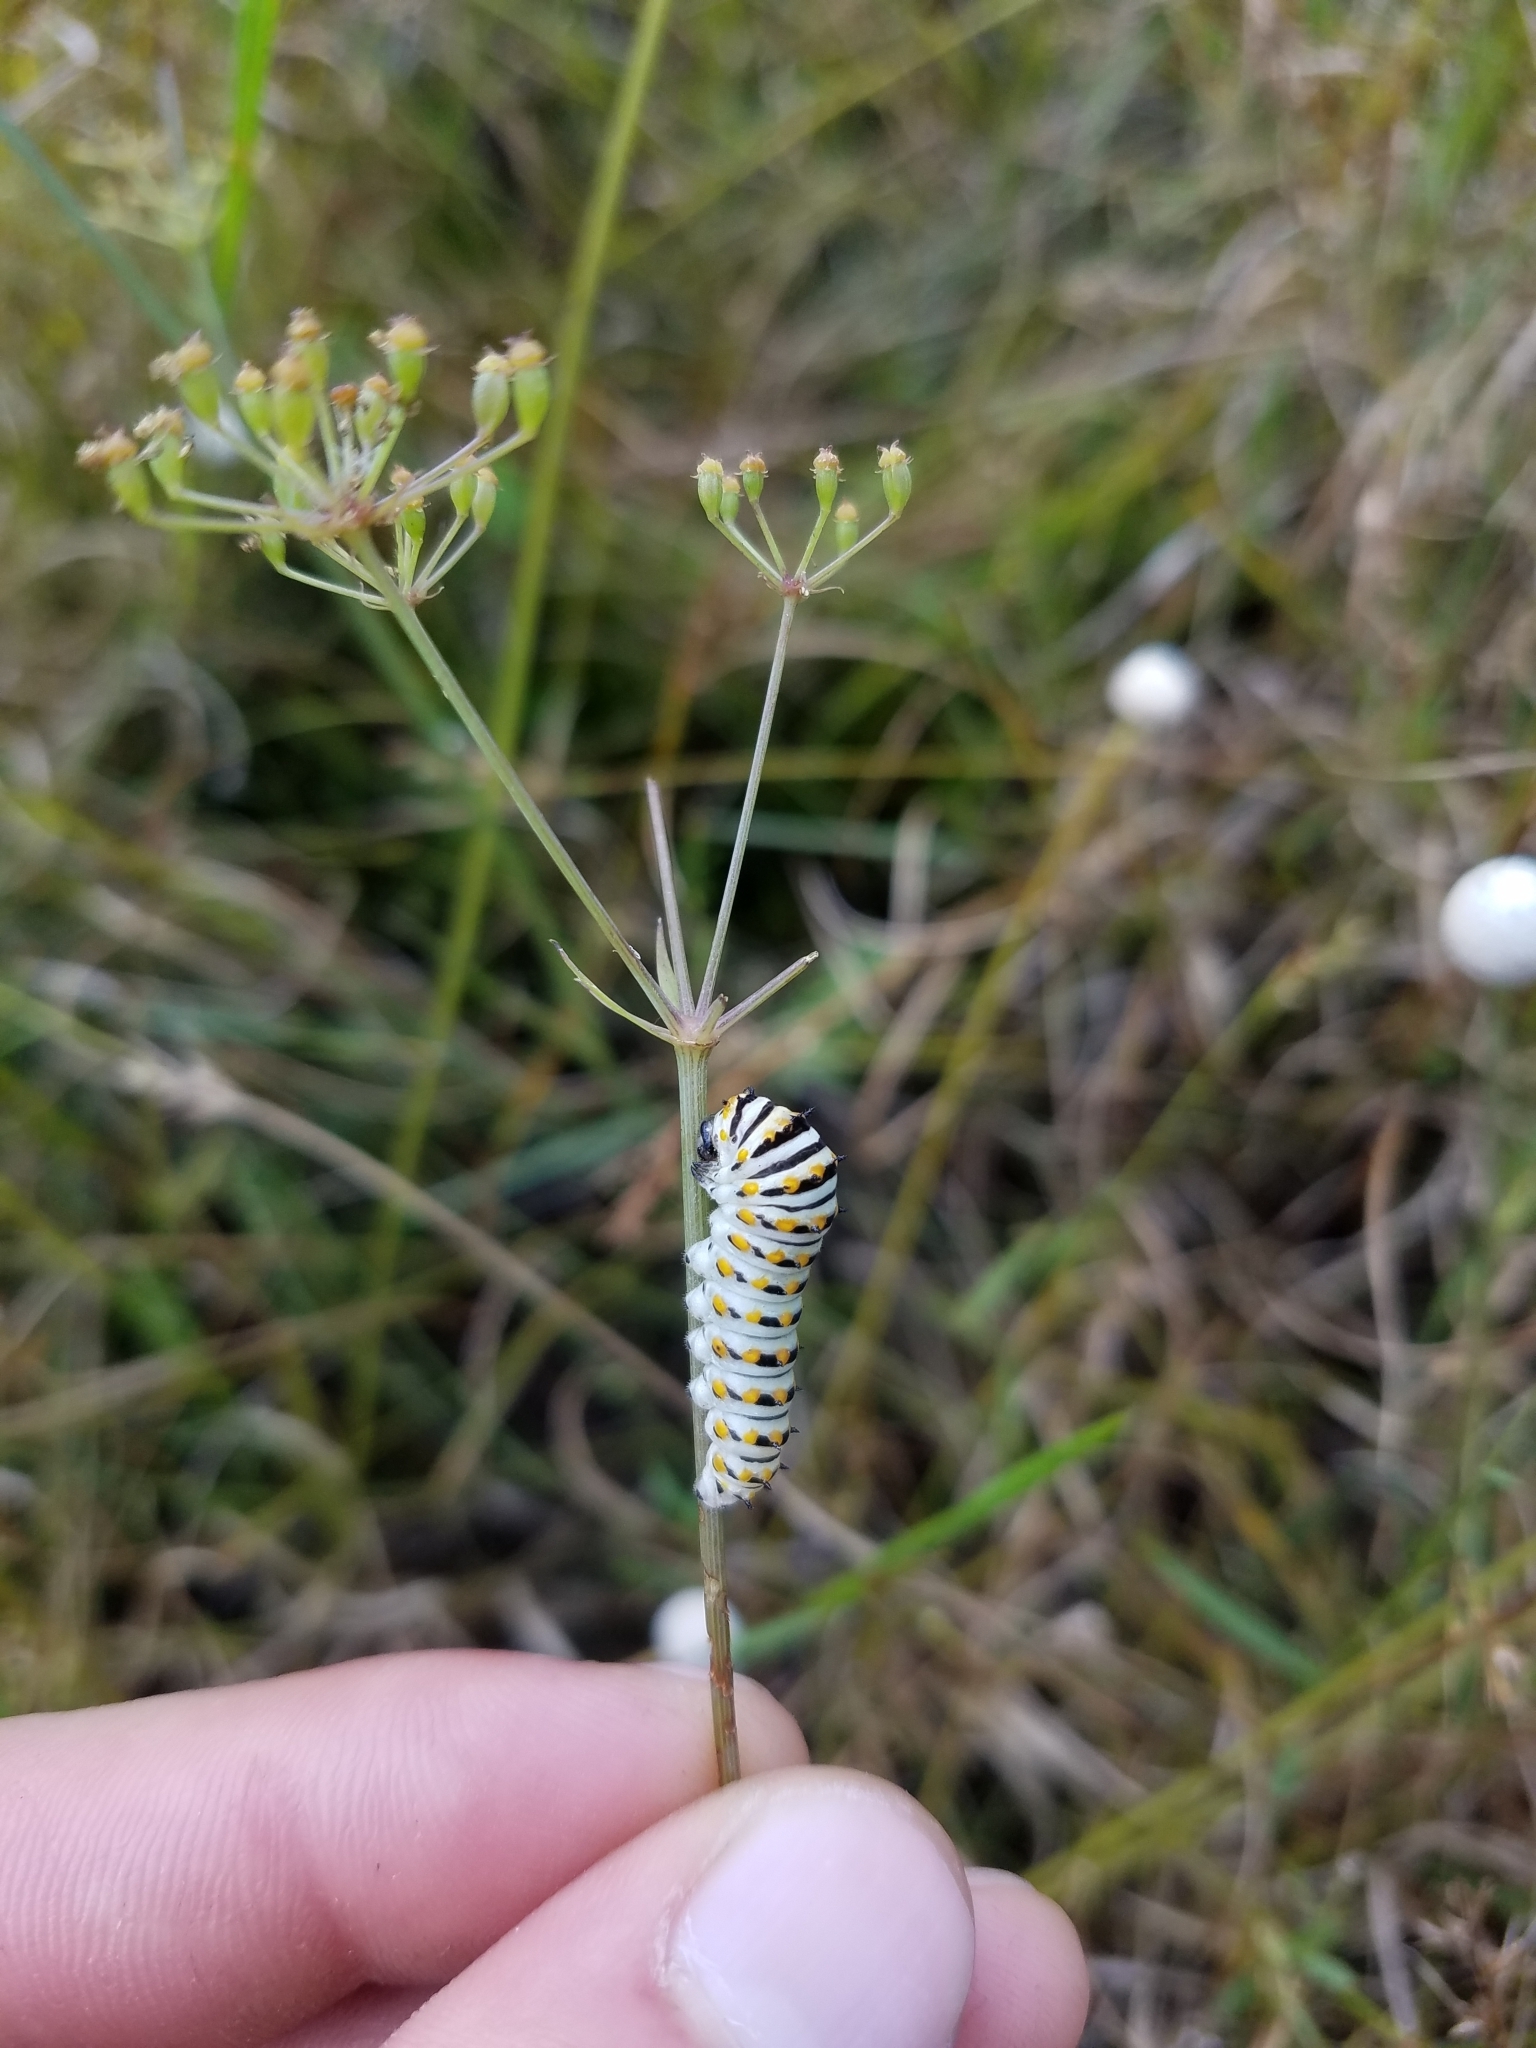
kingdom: Animalia
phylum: Arthropoda
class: Insecta
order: Lepidoptera
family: Papilionidae
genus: Papilio
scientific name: Papilio polyxenes
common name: Black swallowtail
